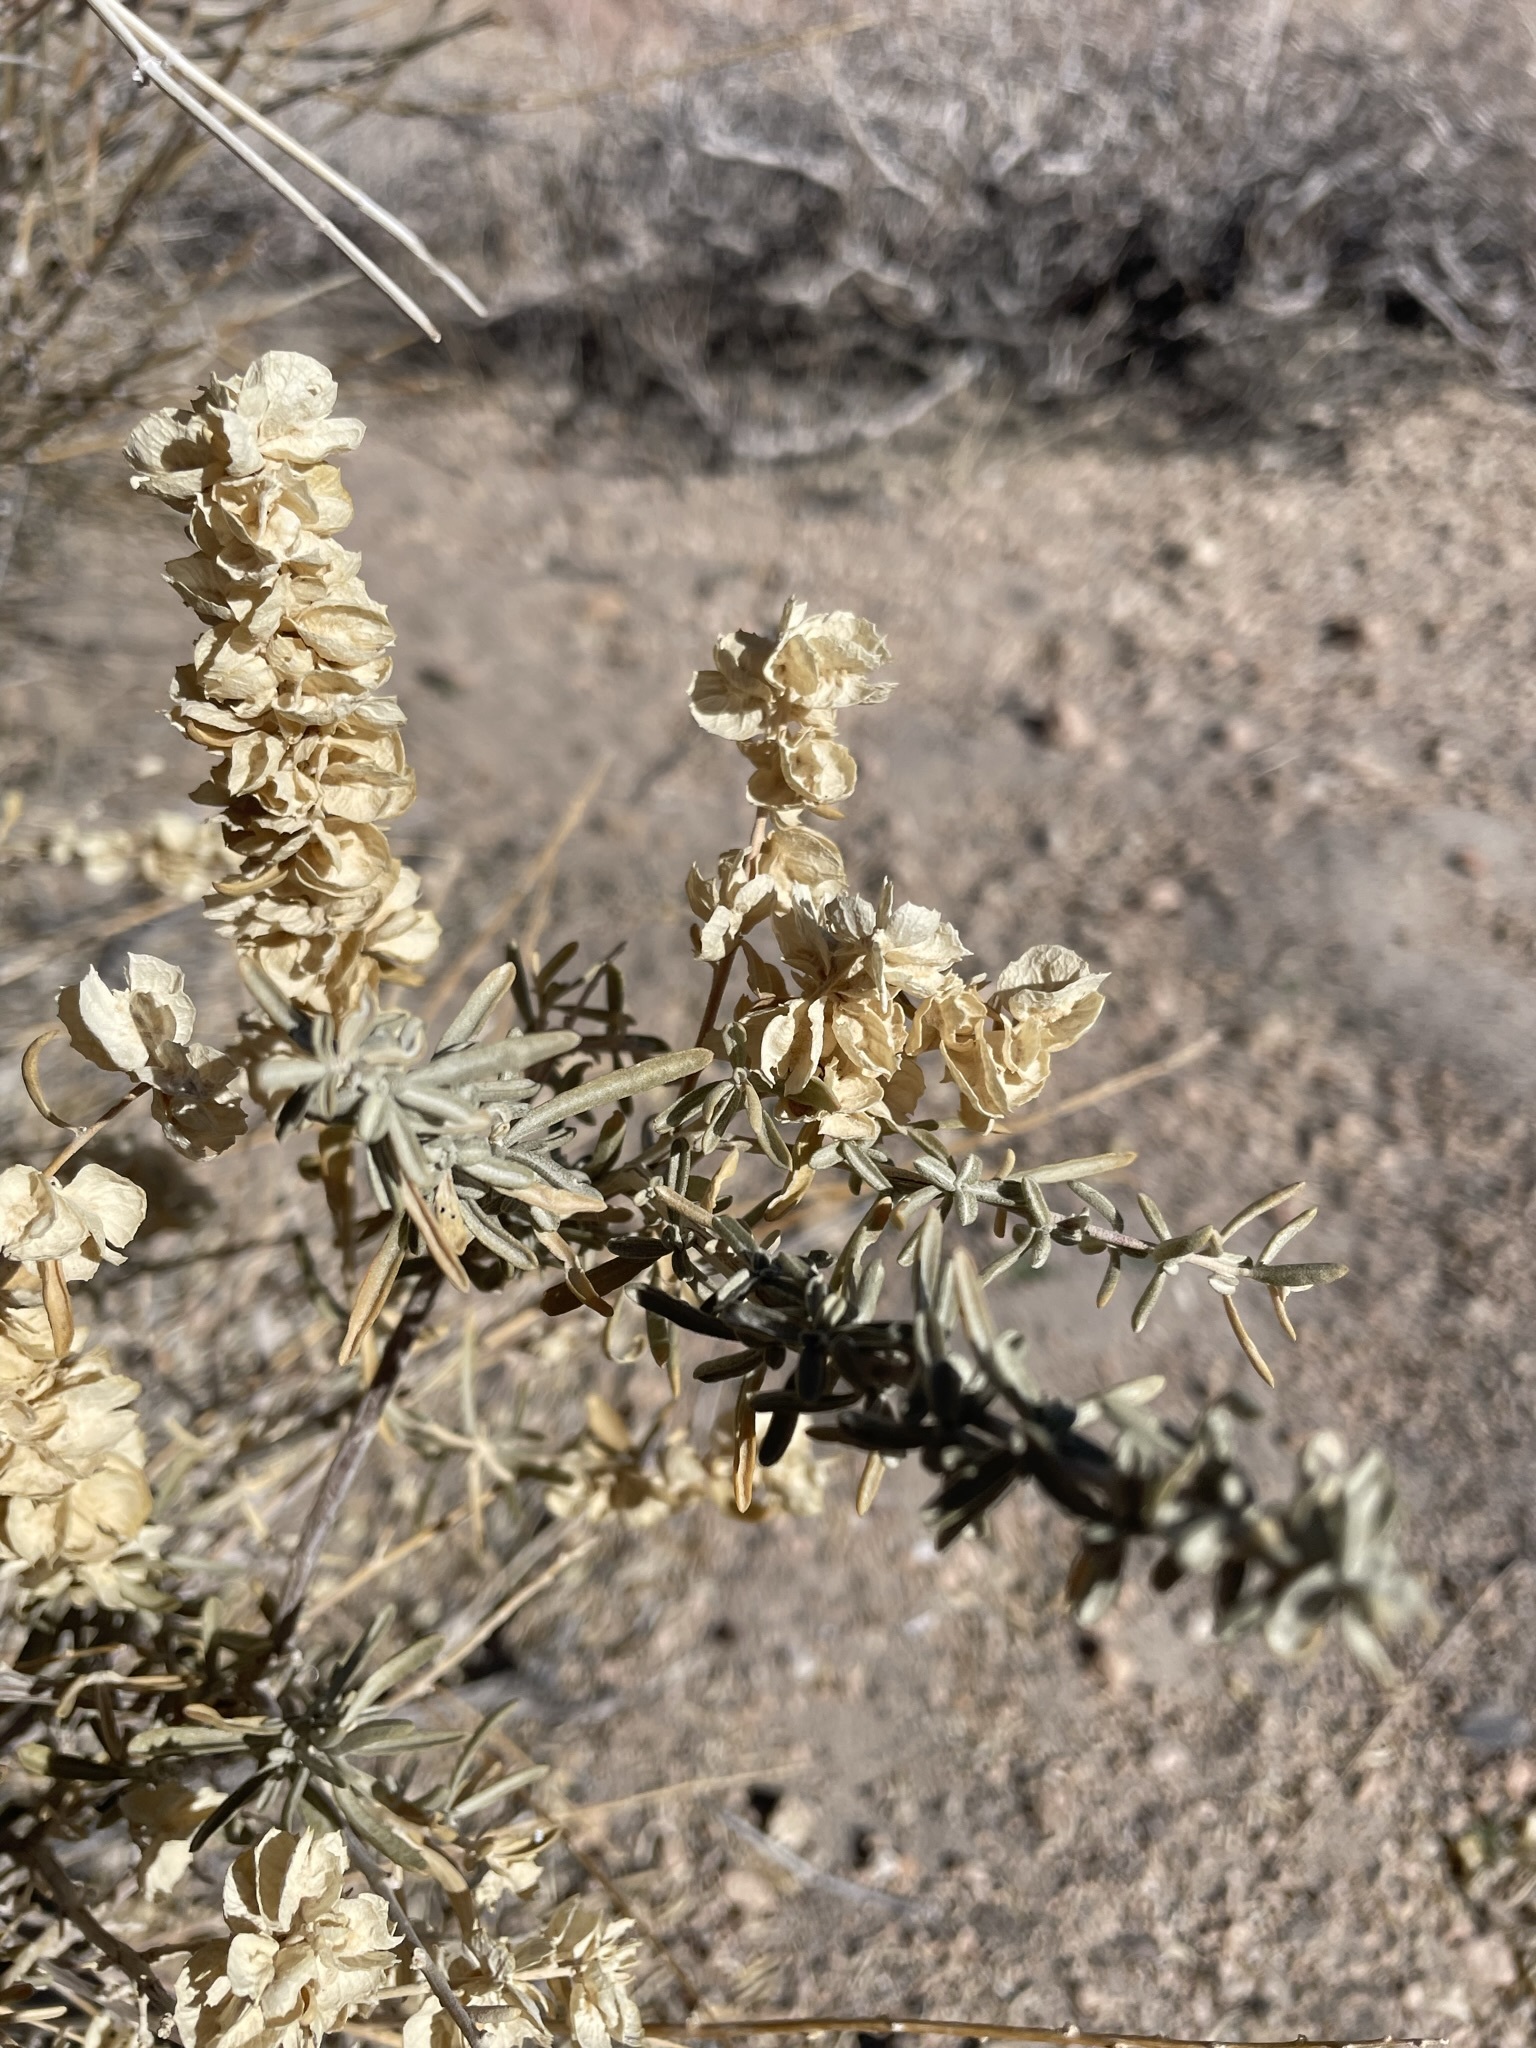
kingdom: Plantae
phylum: Tracheophyta
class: Magnoliopsida
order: Caryophyllales
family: Amaranthaceae
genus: Atriplex
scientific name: Atriplex canescens
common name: Four-wing saltbush
